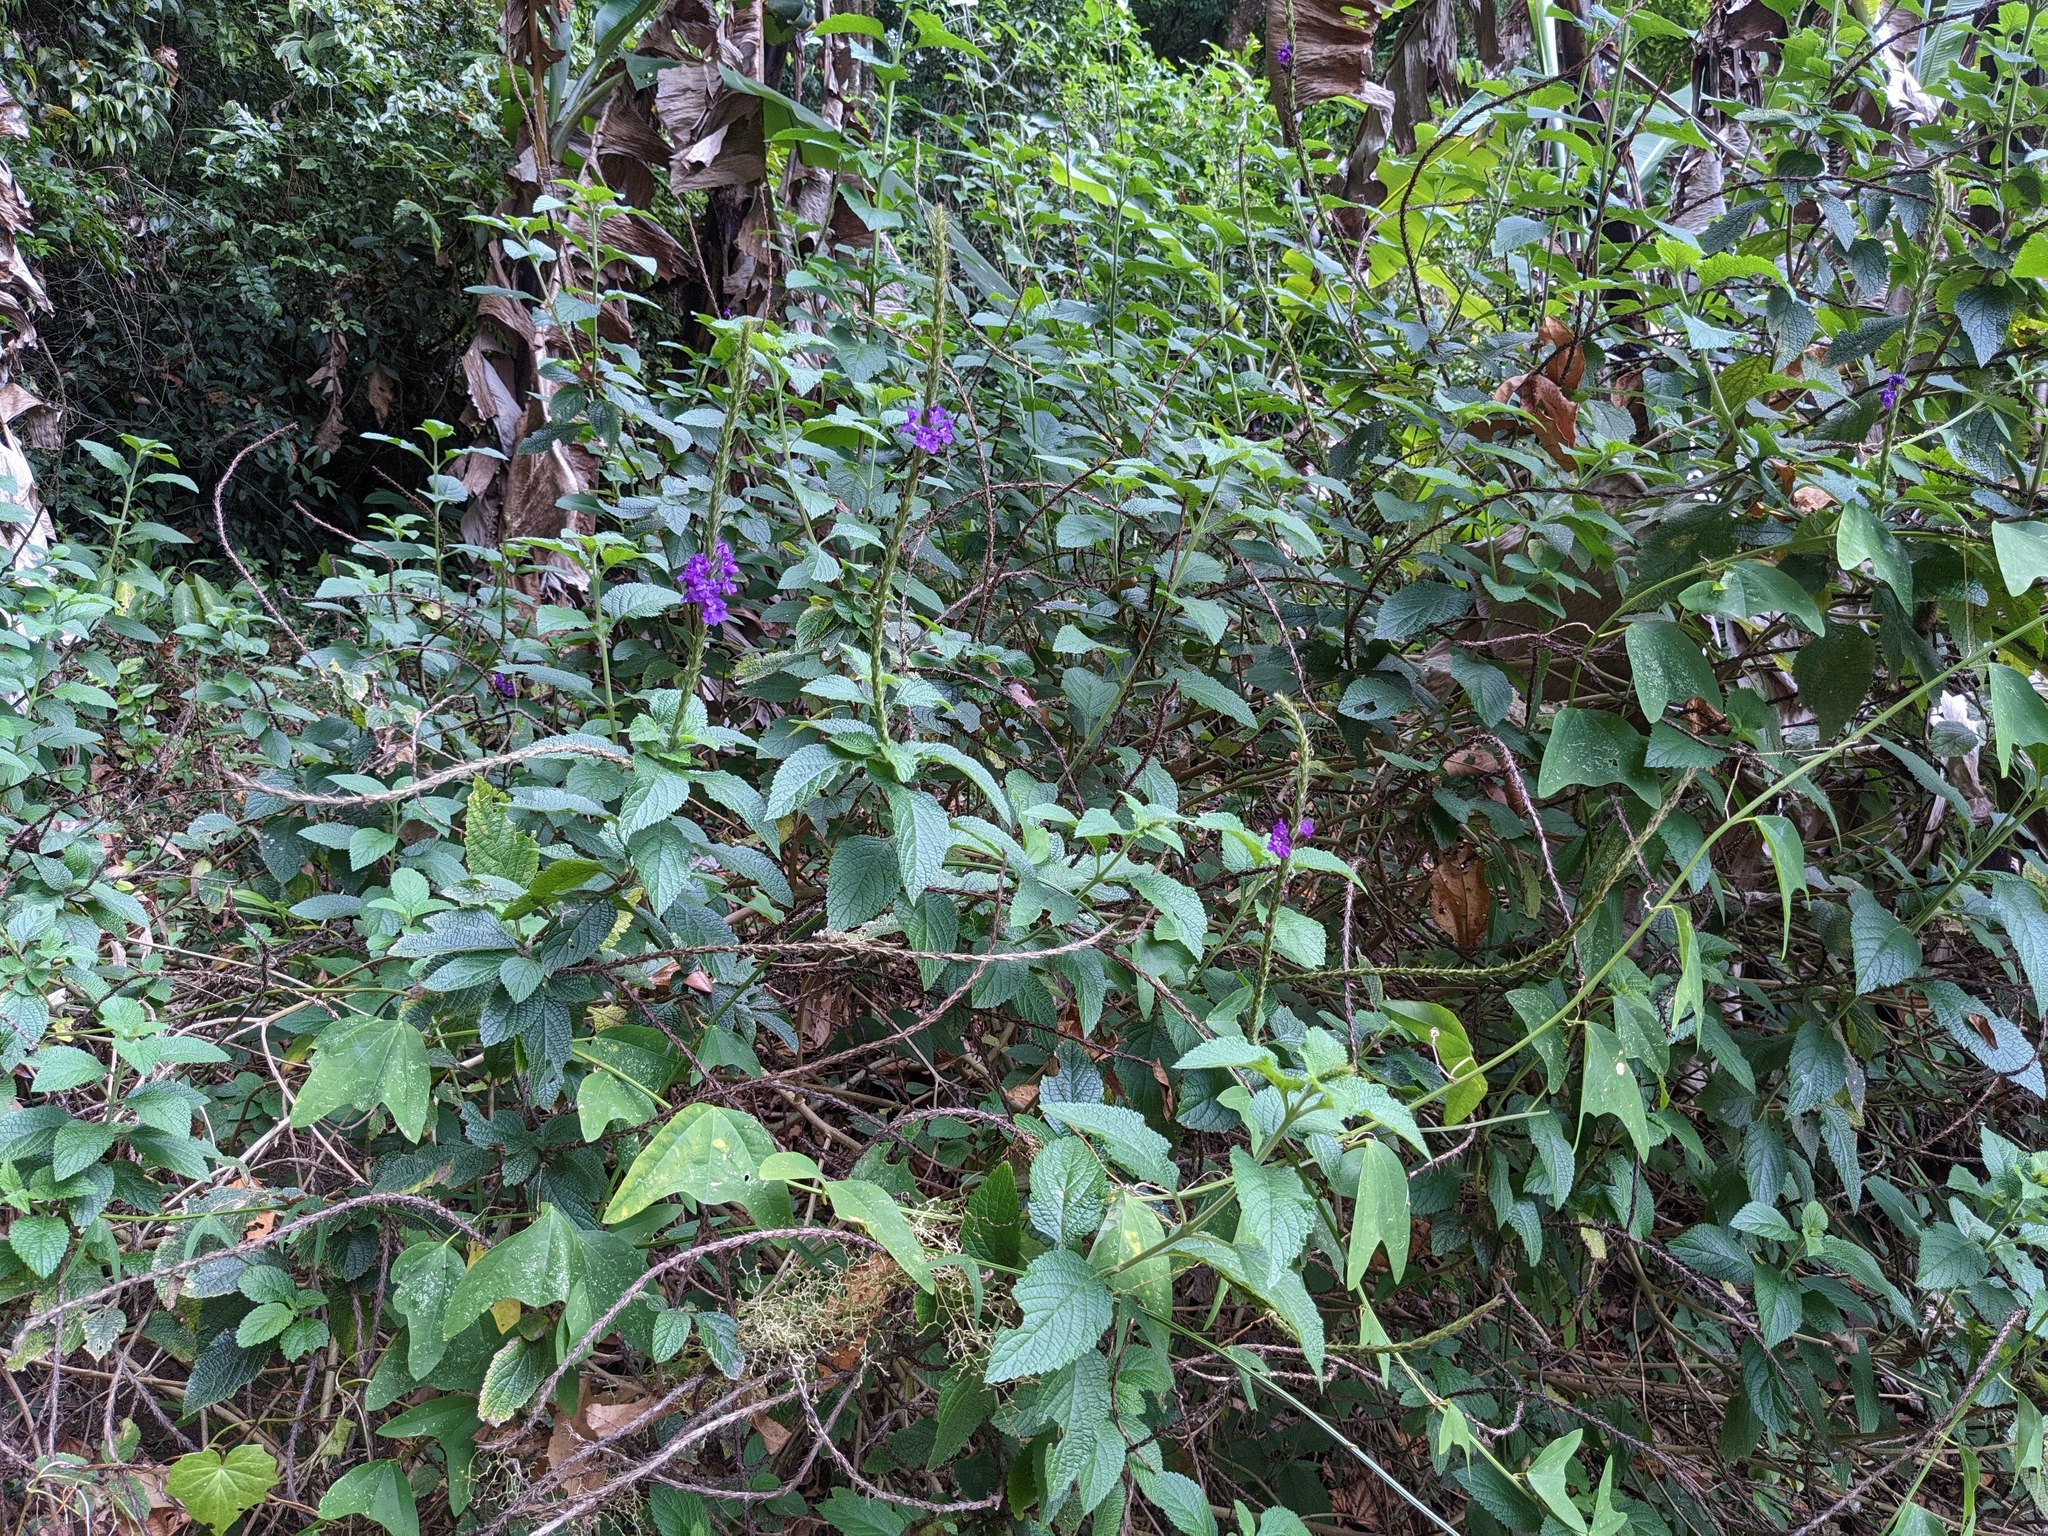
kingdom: Plantae
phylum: Tracheophyta
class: Magnoliopsida
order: Lamiales
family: Verbenaceae
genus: Stachytarpheta
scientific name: Stachytarpheta
